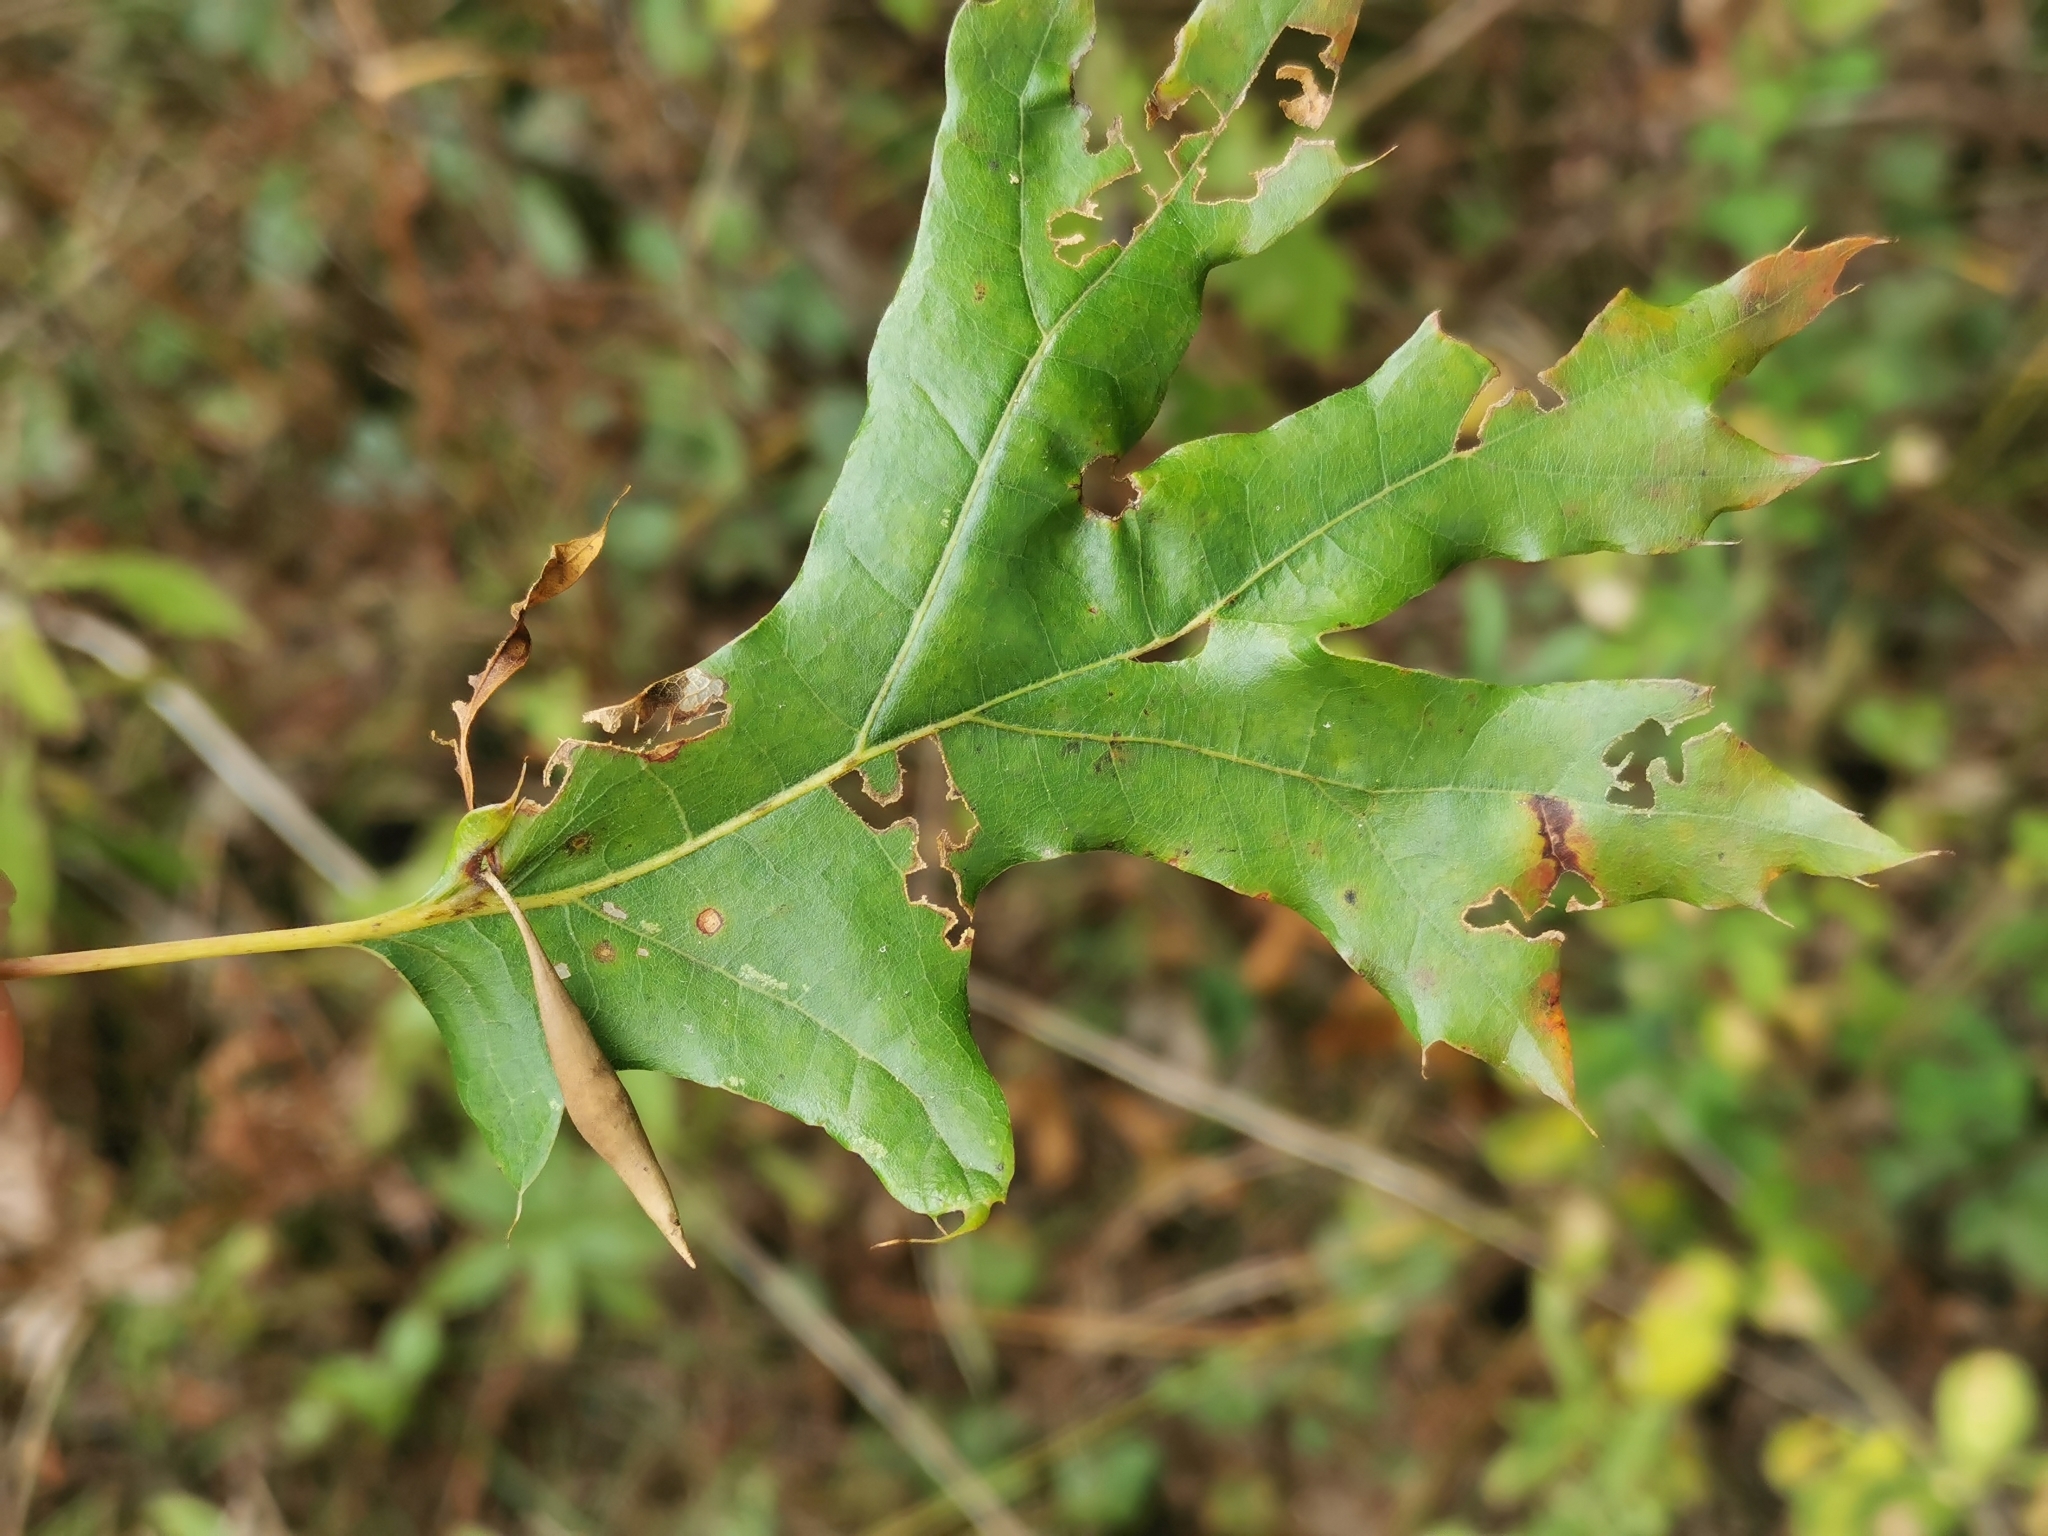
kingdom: Animalia
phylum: Arthropoda
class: Insecta
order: Hymenoptera
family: Cynipidae
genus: Amphibolips
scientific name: Amphibolips
